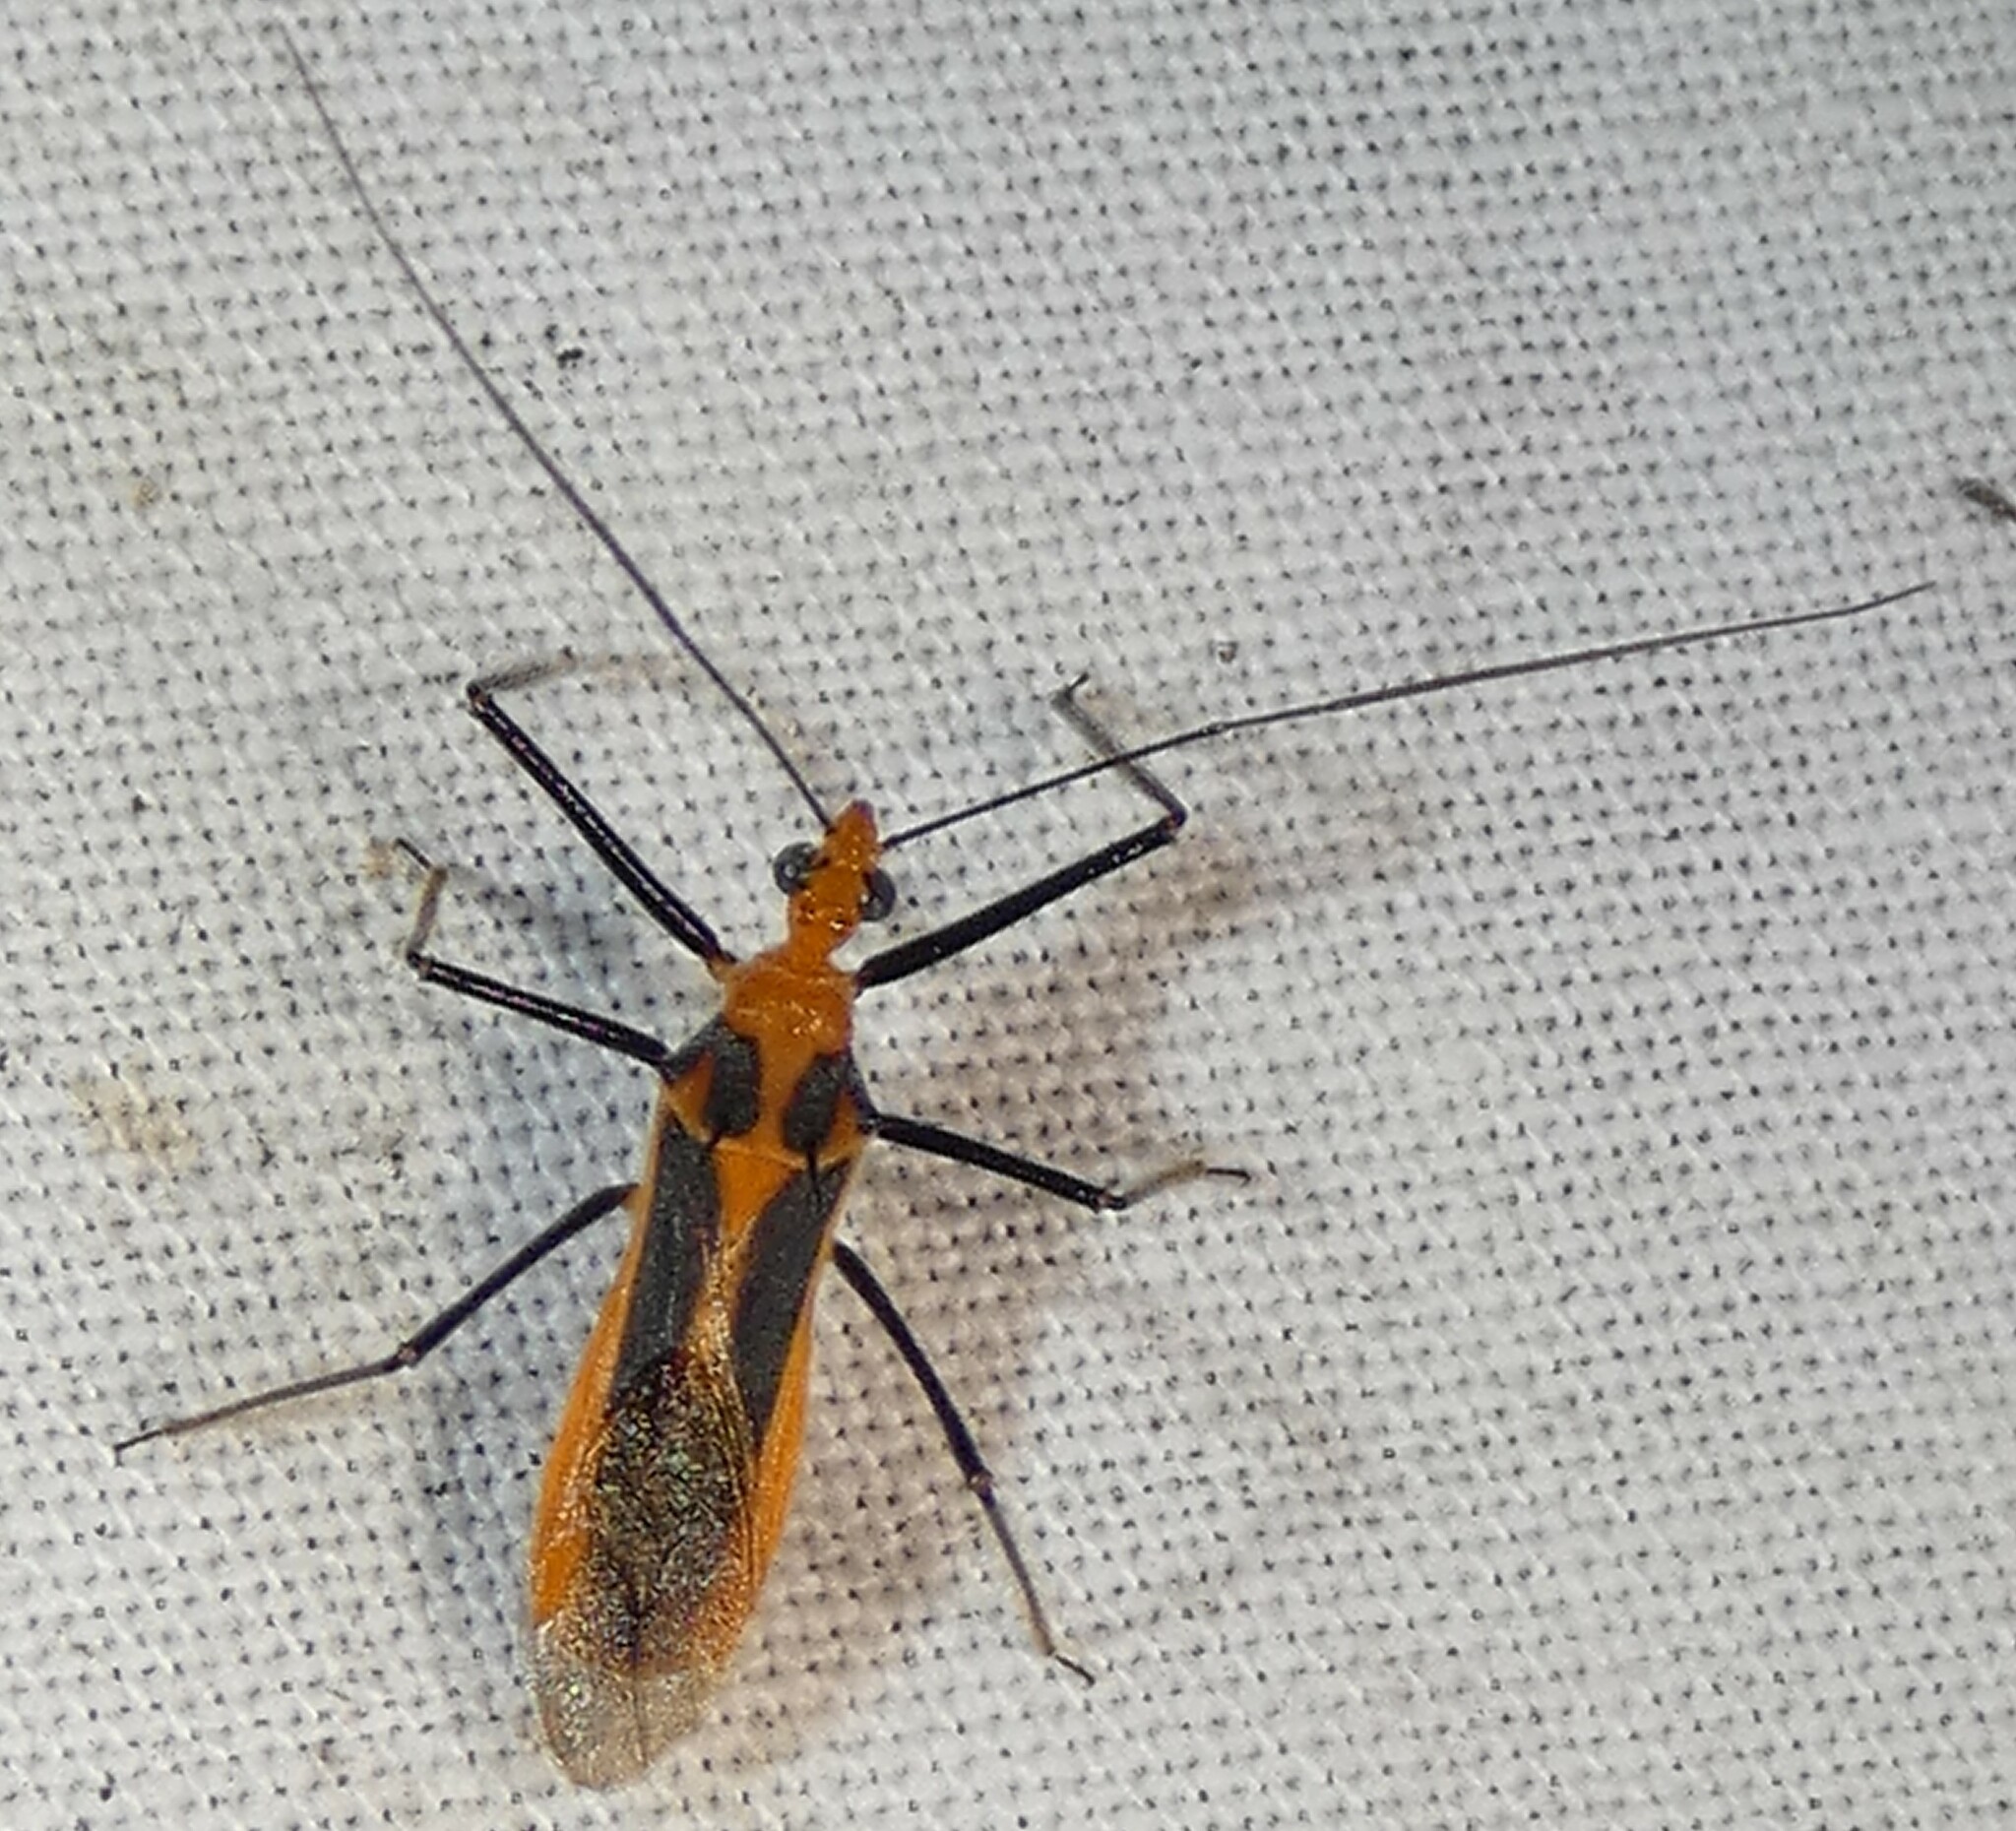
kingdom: Animalia
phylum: Arthropoda
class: Insecta
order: Hemiptera
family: Reduviidae
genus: Repipta
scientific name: Repipta taurus
